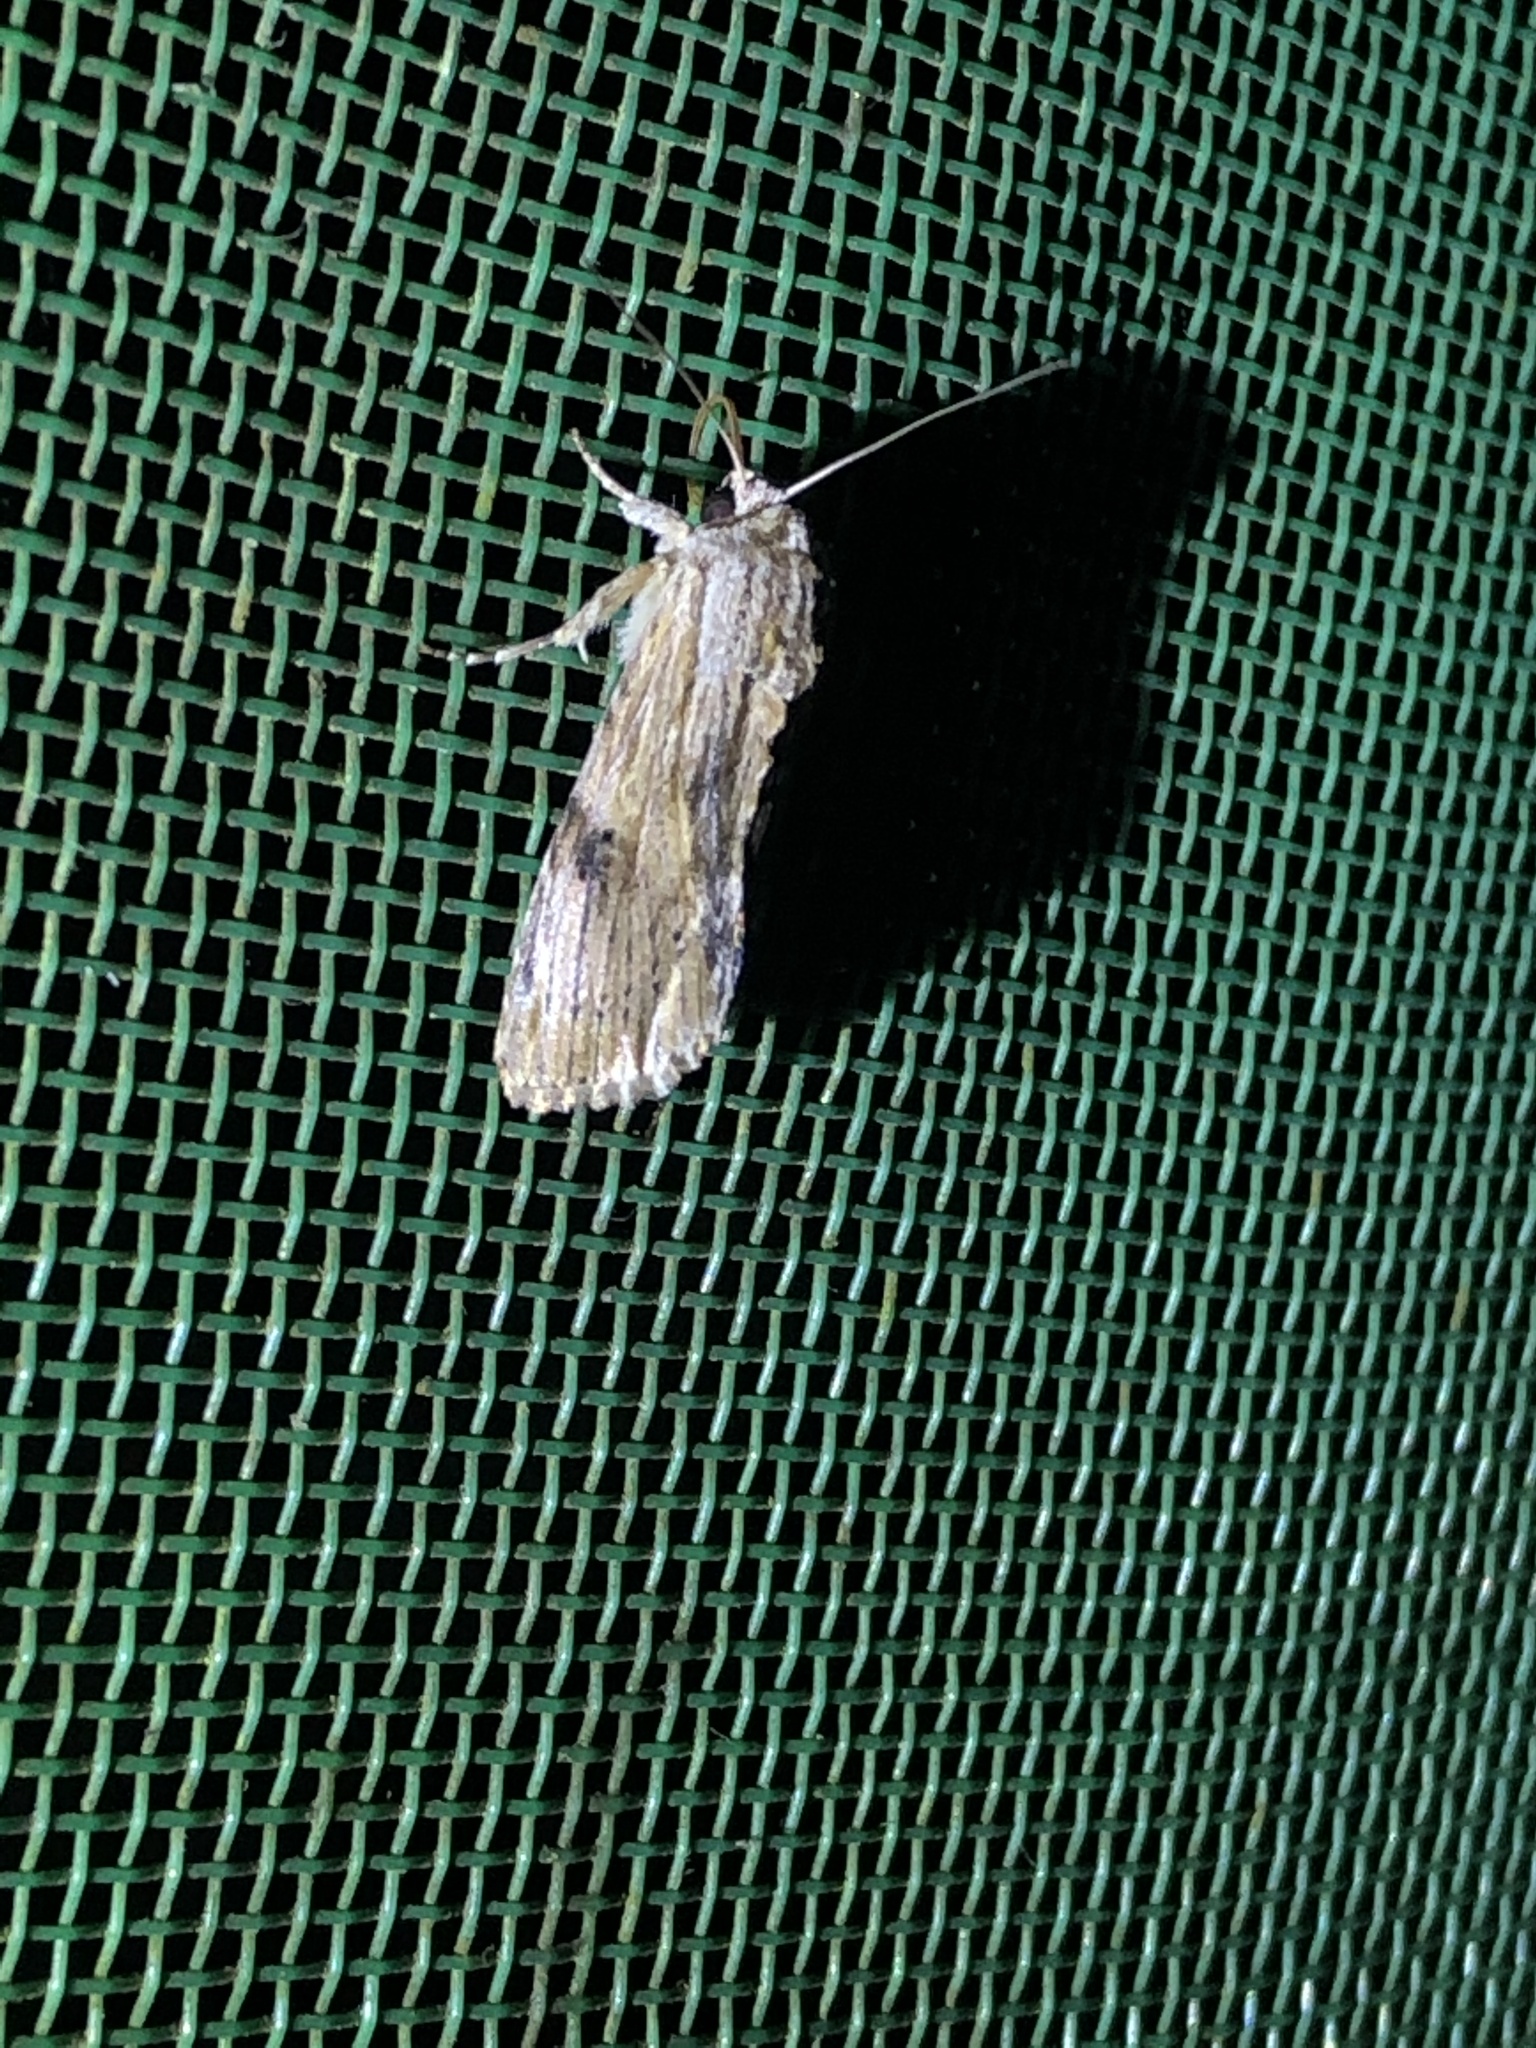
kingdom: Animalia
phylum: Arthropoda
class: Insecta
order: Lepidoptera
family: Noctuidae
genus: Spodoptera
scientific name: Spodoptera eridania
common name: Southern army worm
